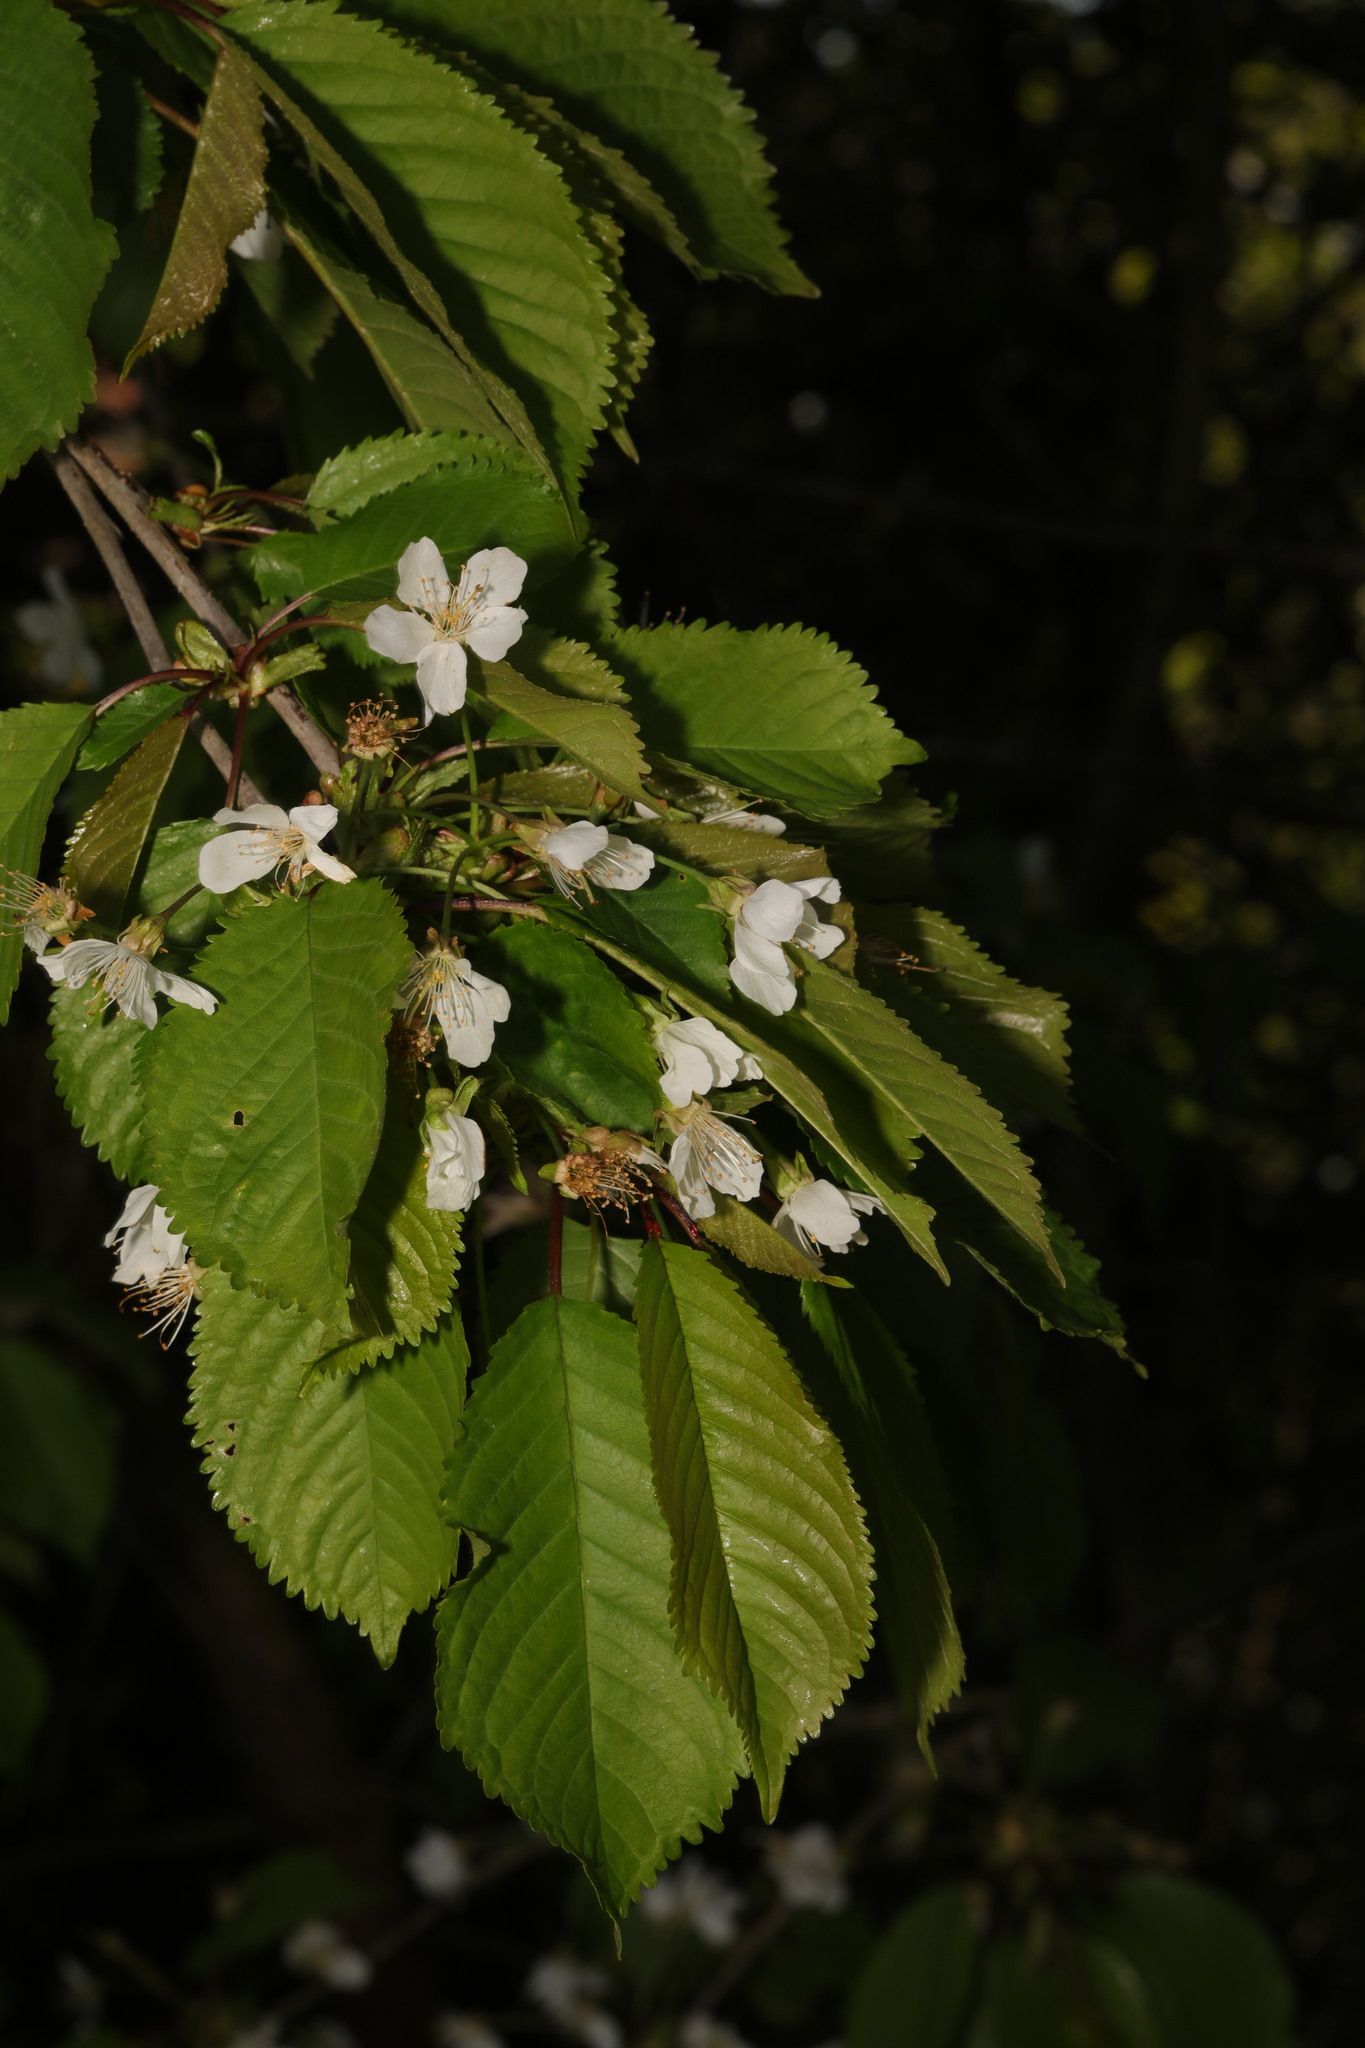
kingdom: Plantae
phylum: Tracheophyta
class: Magnoliopsida
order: Rosales
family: Rosaceae
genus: Prunus
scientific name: Prunus avium
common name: Sweet cherry
